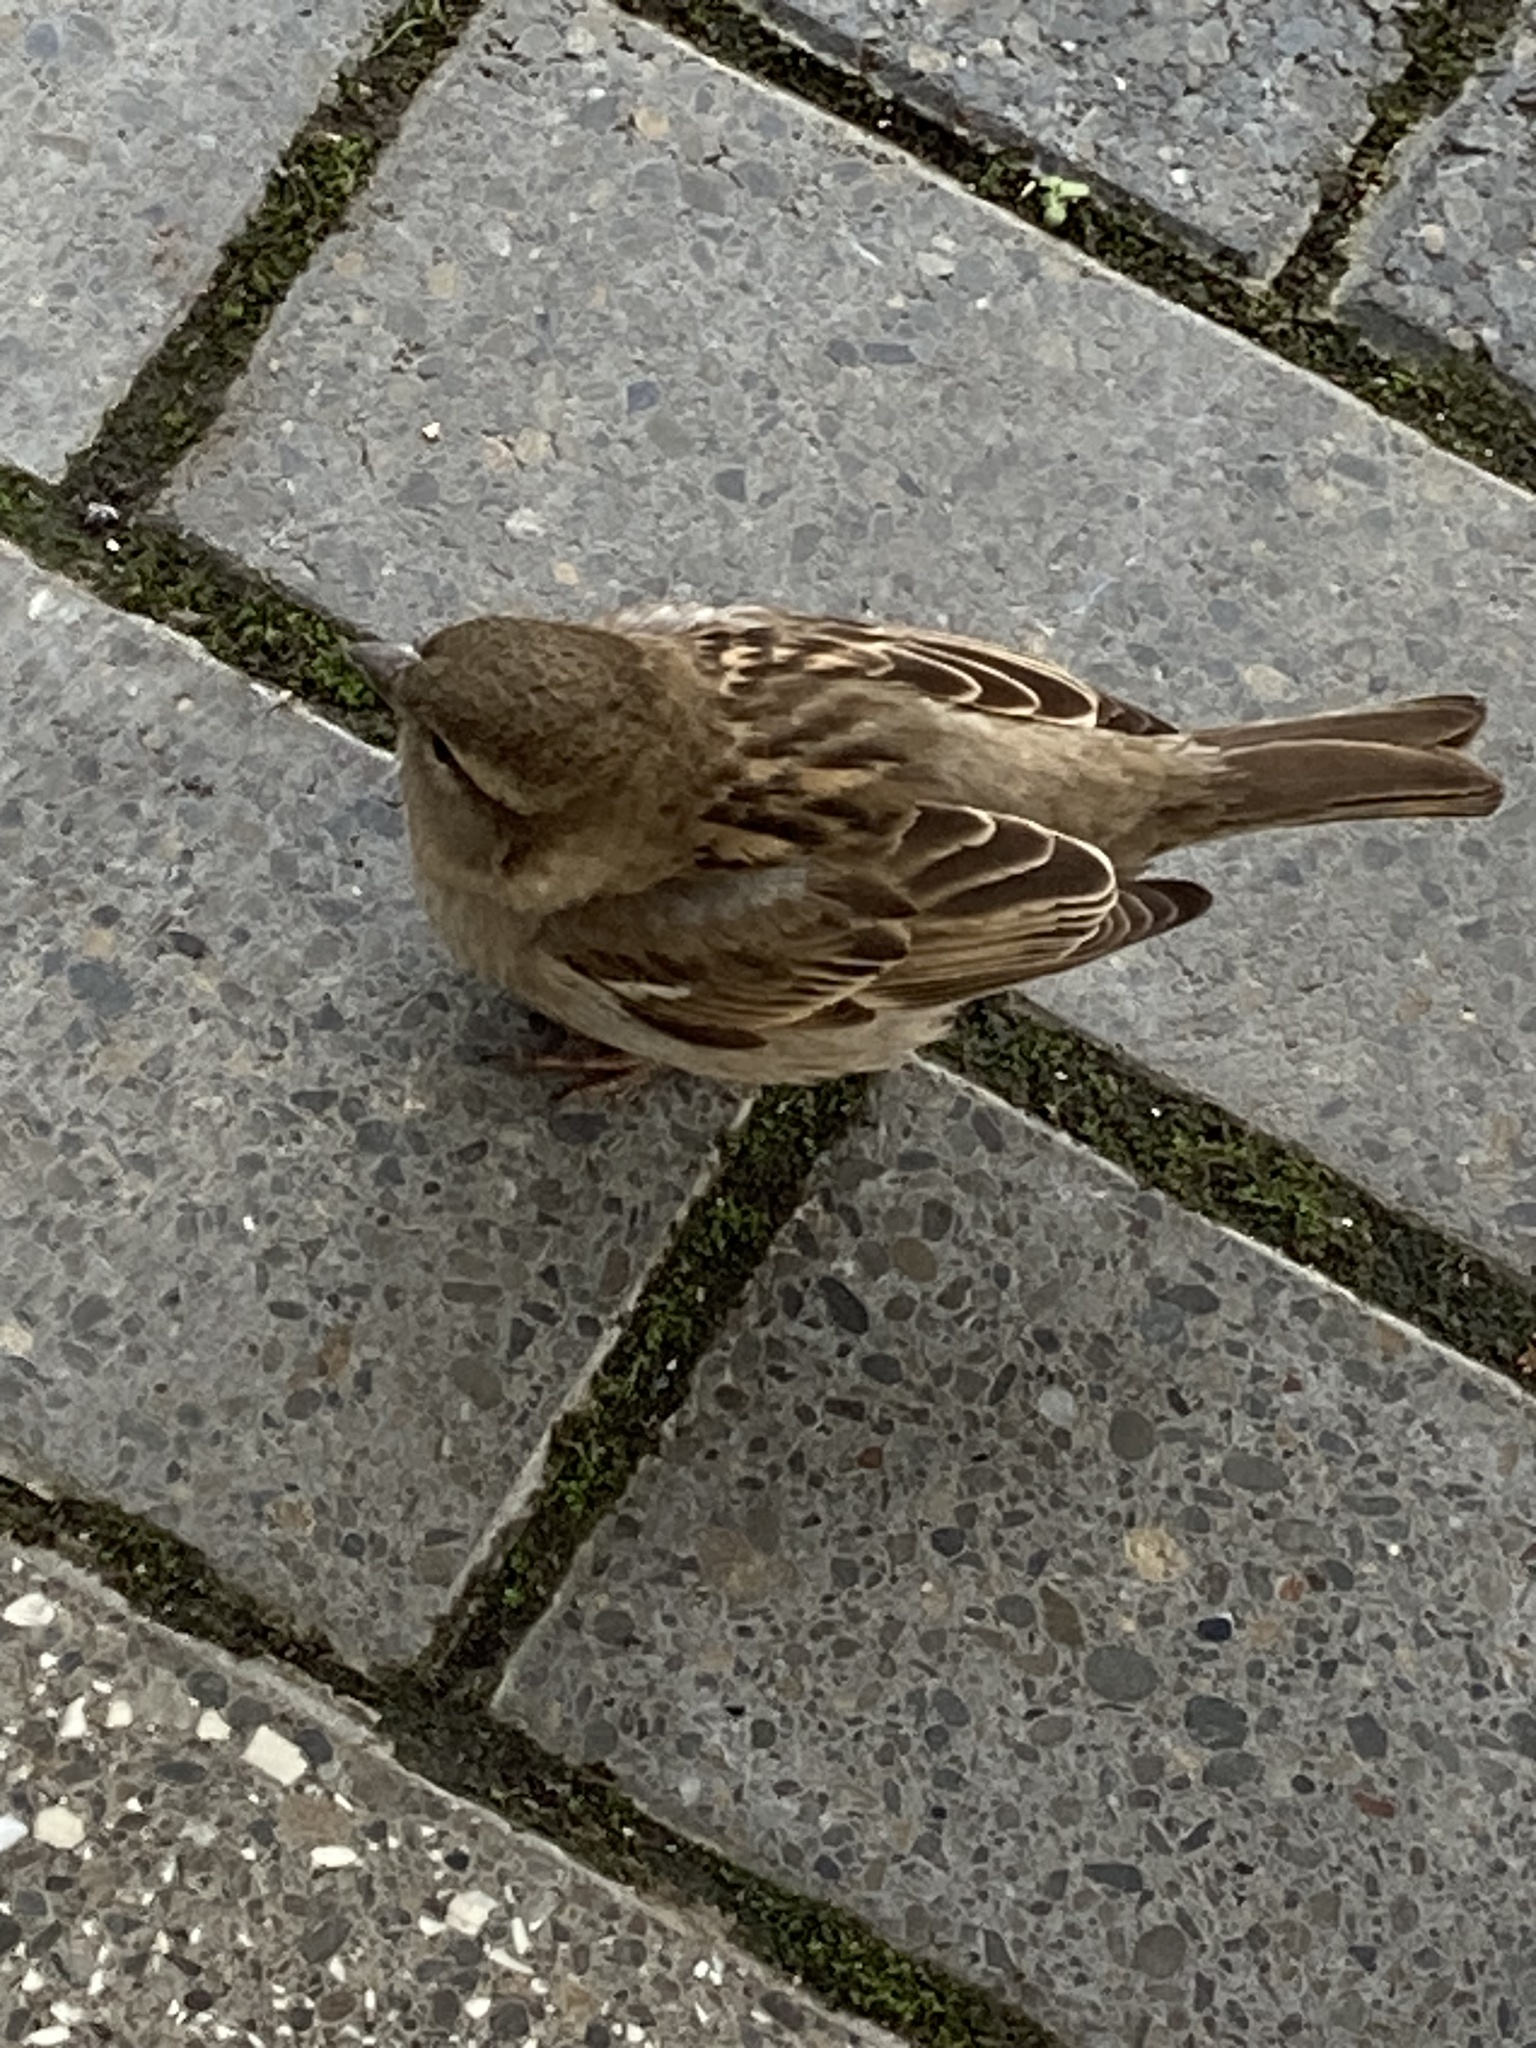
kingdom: Animalia
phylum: Chordata
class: Aves
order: Passeriformes
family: Passeridae
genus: Passer
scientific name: Passer domesticus
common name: House sparrow
